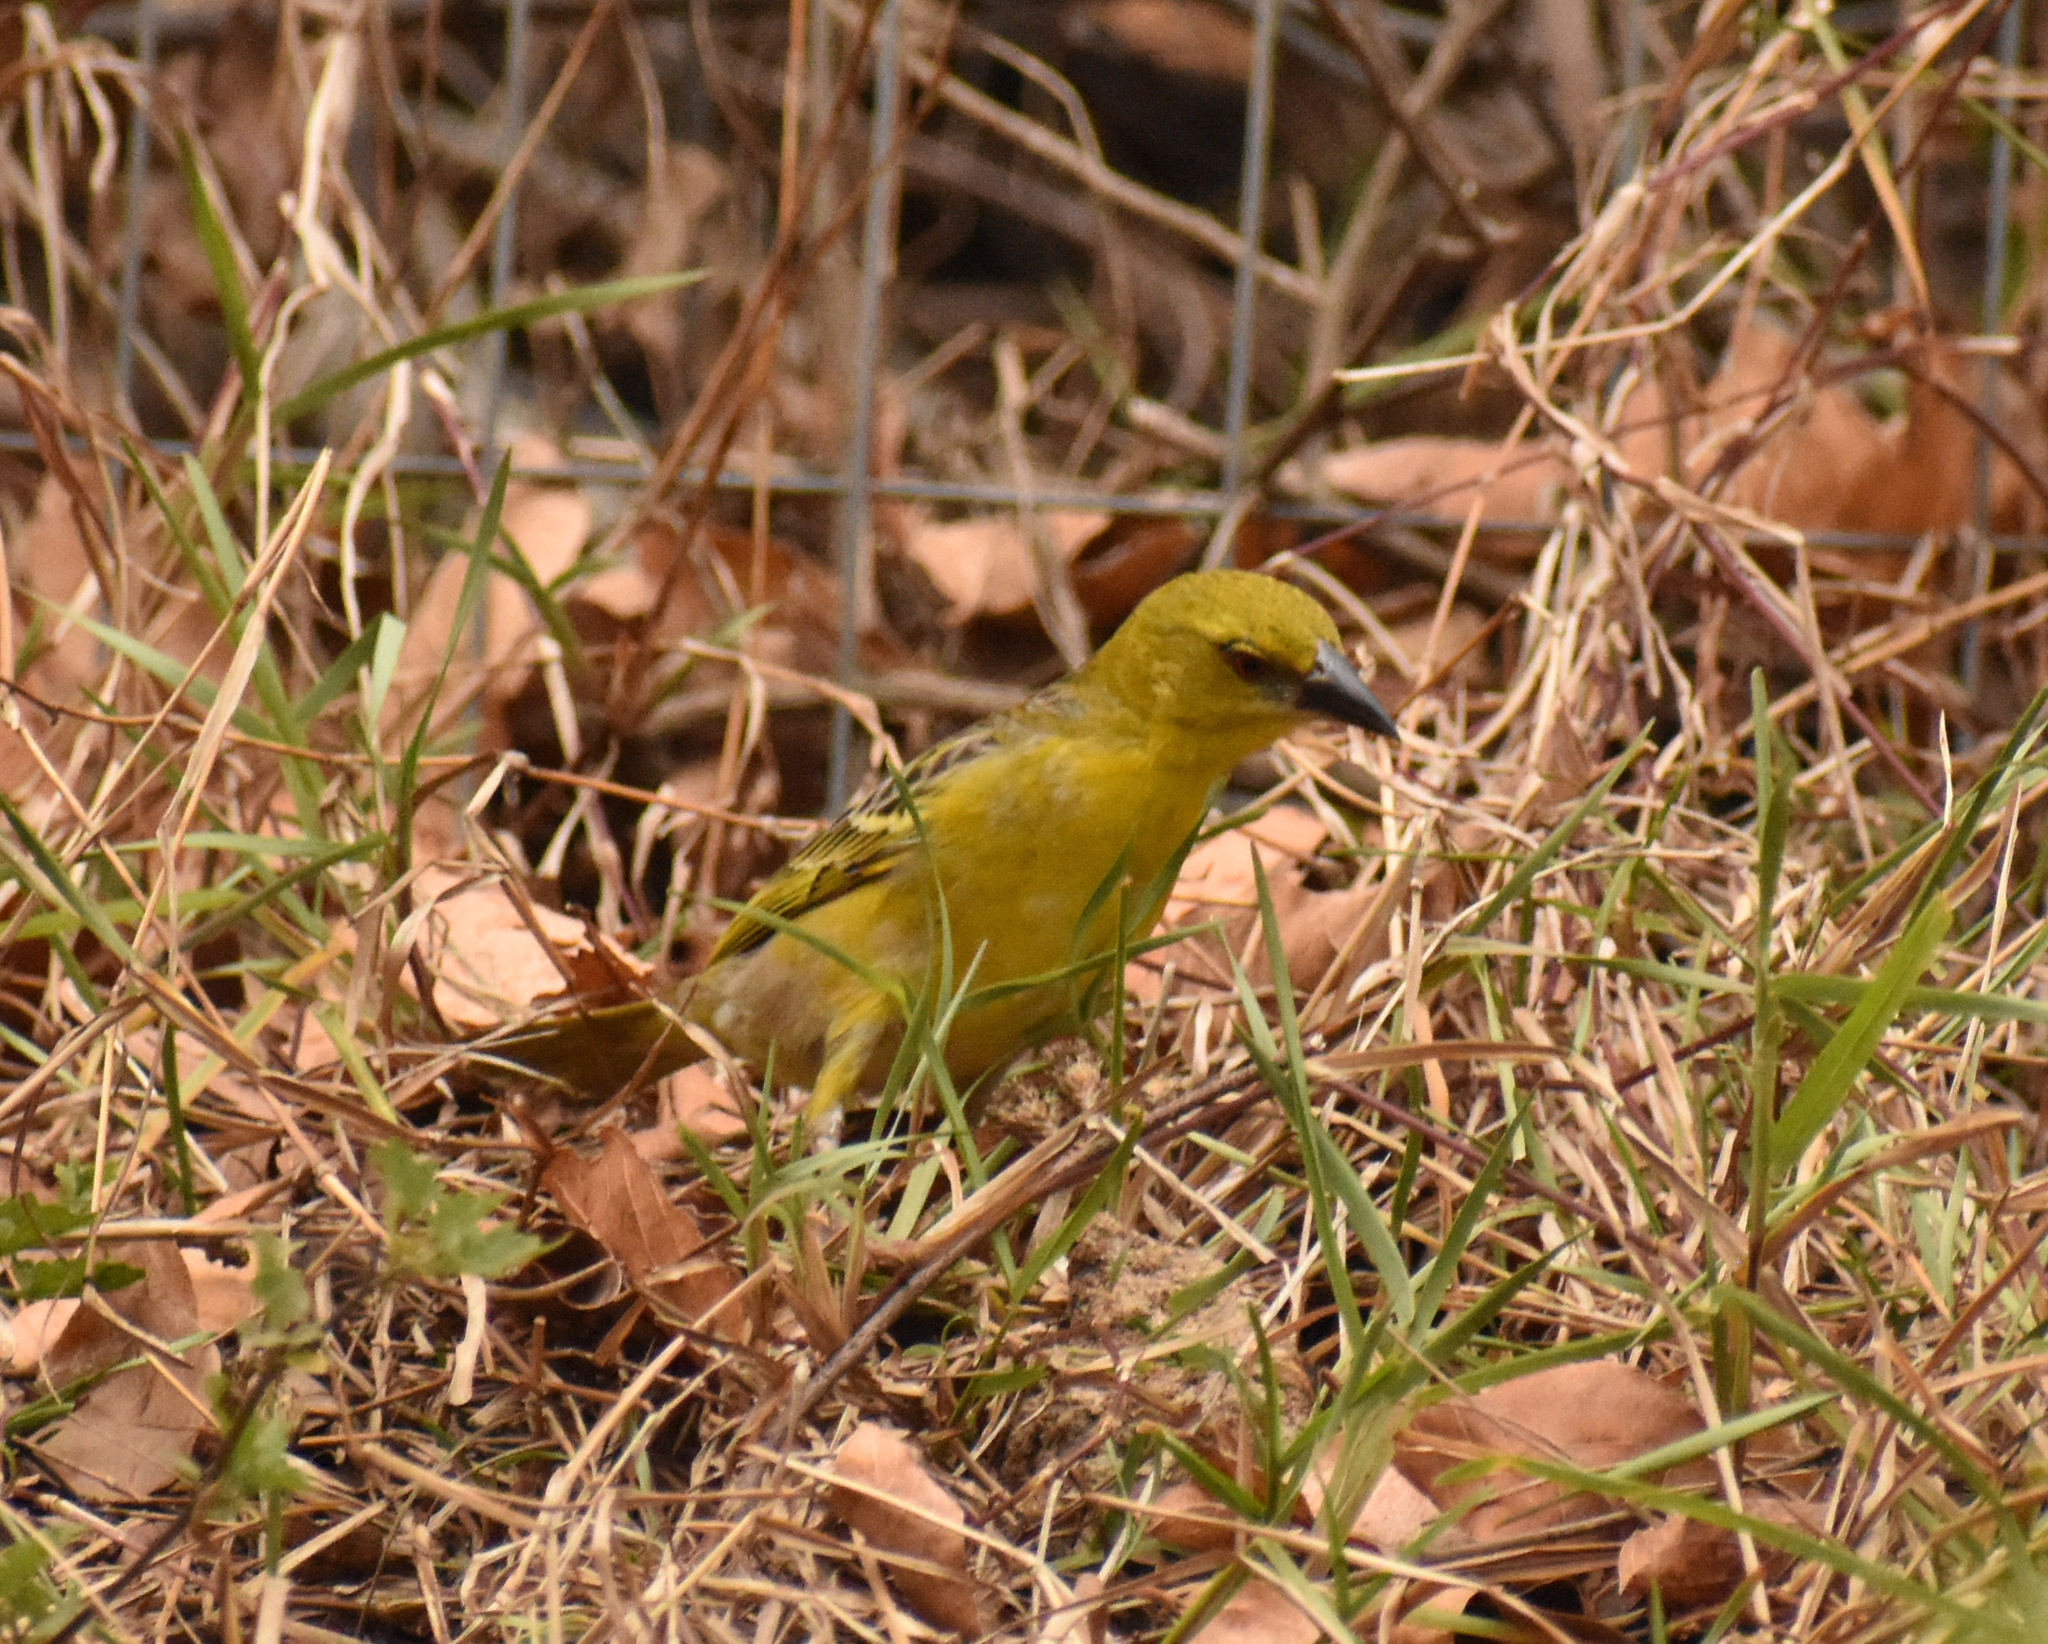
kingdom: Animalia
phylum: Chordata
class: Aves
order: Passeriformes
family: Ploceidae
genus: Ploceus
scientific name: Ploceus cucullatus
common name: Village weaver
